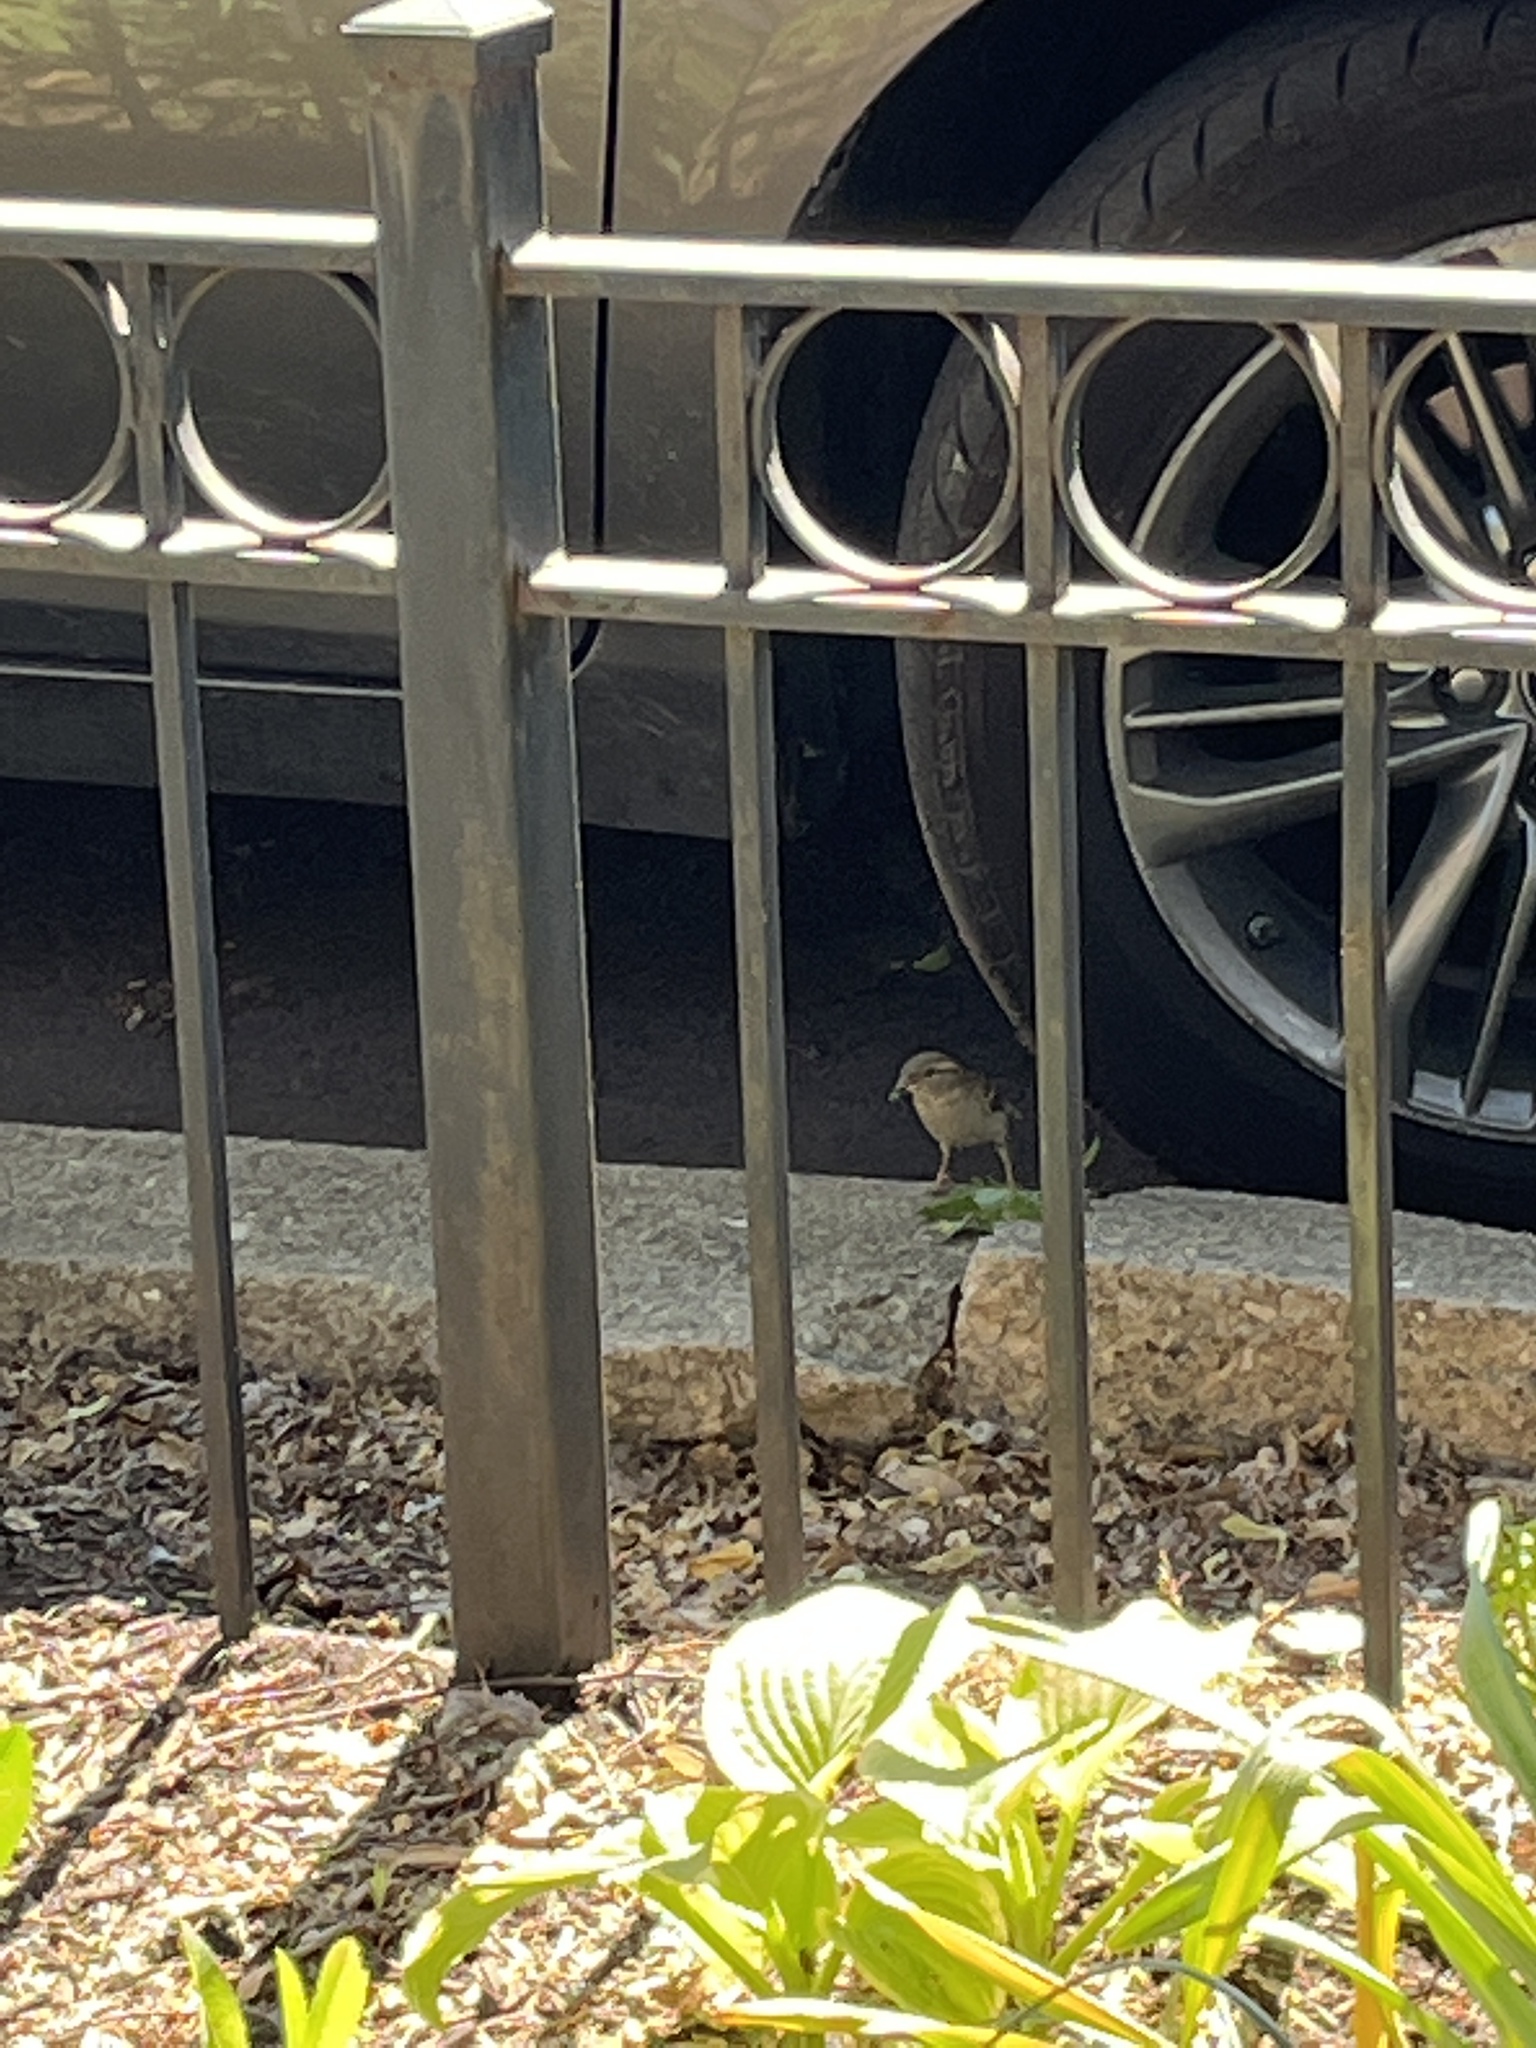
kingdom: Animalia
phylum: Chordata
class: Aves
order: Passeriformes
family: Passeridae
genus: Passer
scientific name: Passer domesticus
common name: House sparrow
